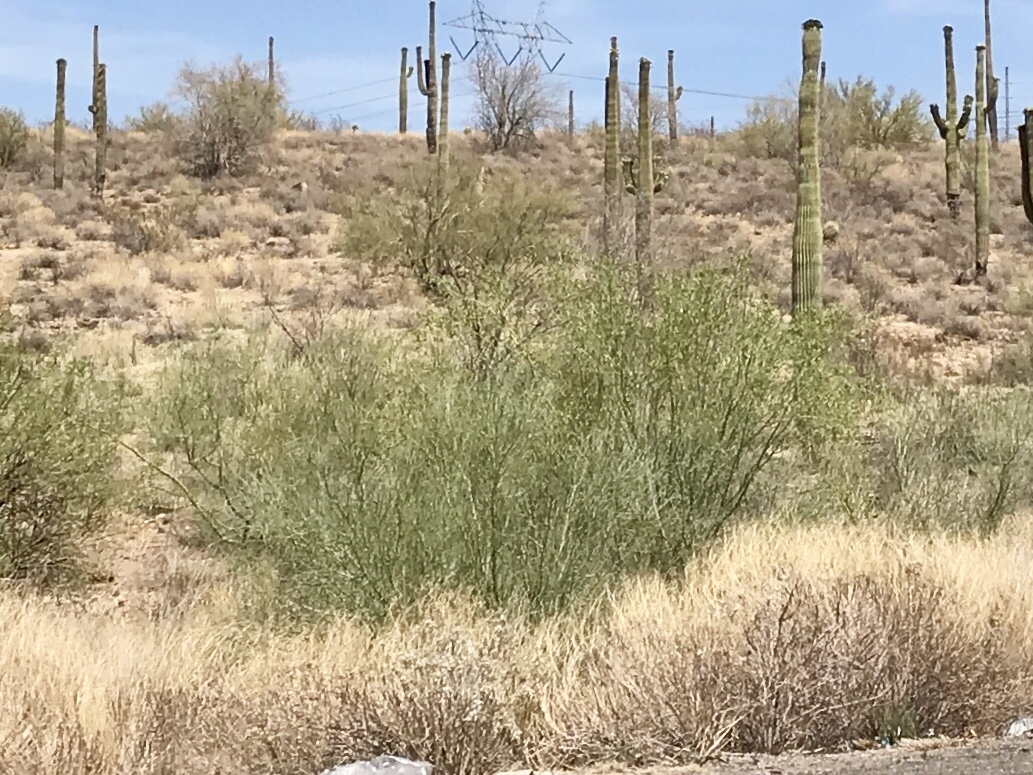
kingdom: Plantae
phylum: Tracheophyta
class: Magnoliopsida
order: Fabales
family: Fabaceae
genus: Parkinsonia
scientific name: Parkinsonia microphylla
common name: Yellow paloverde
